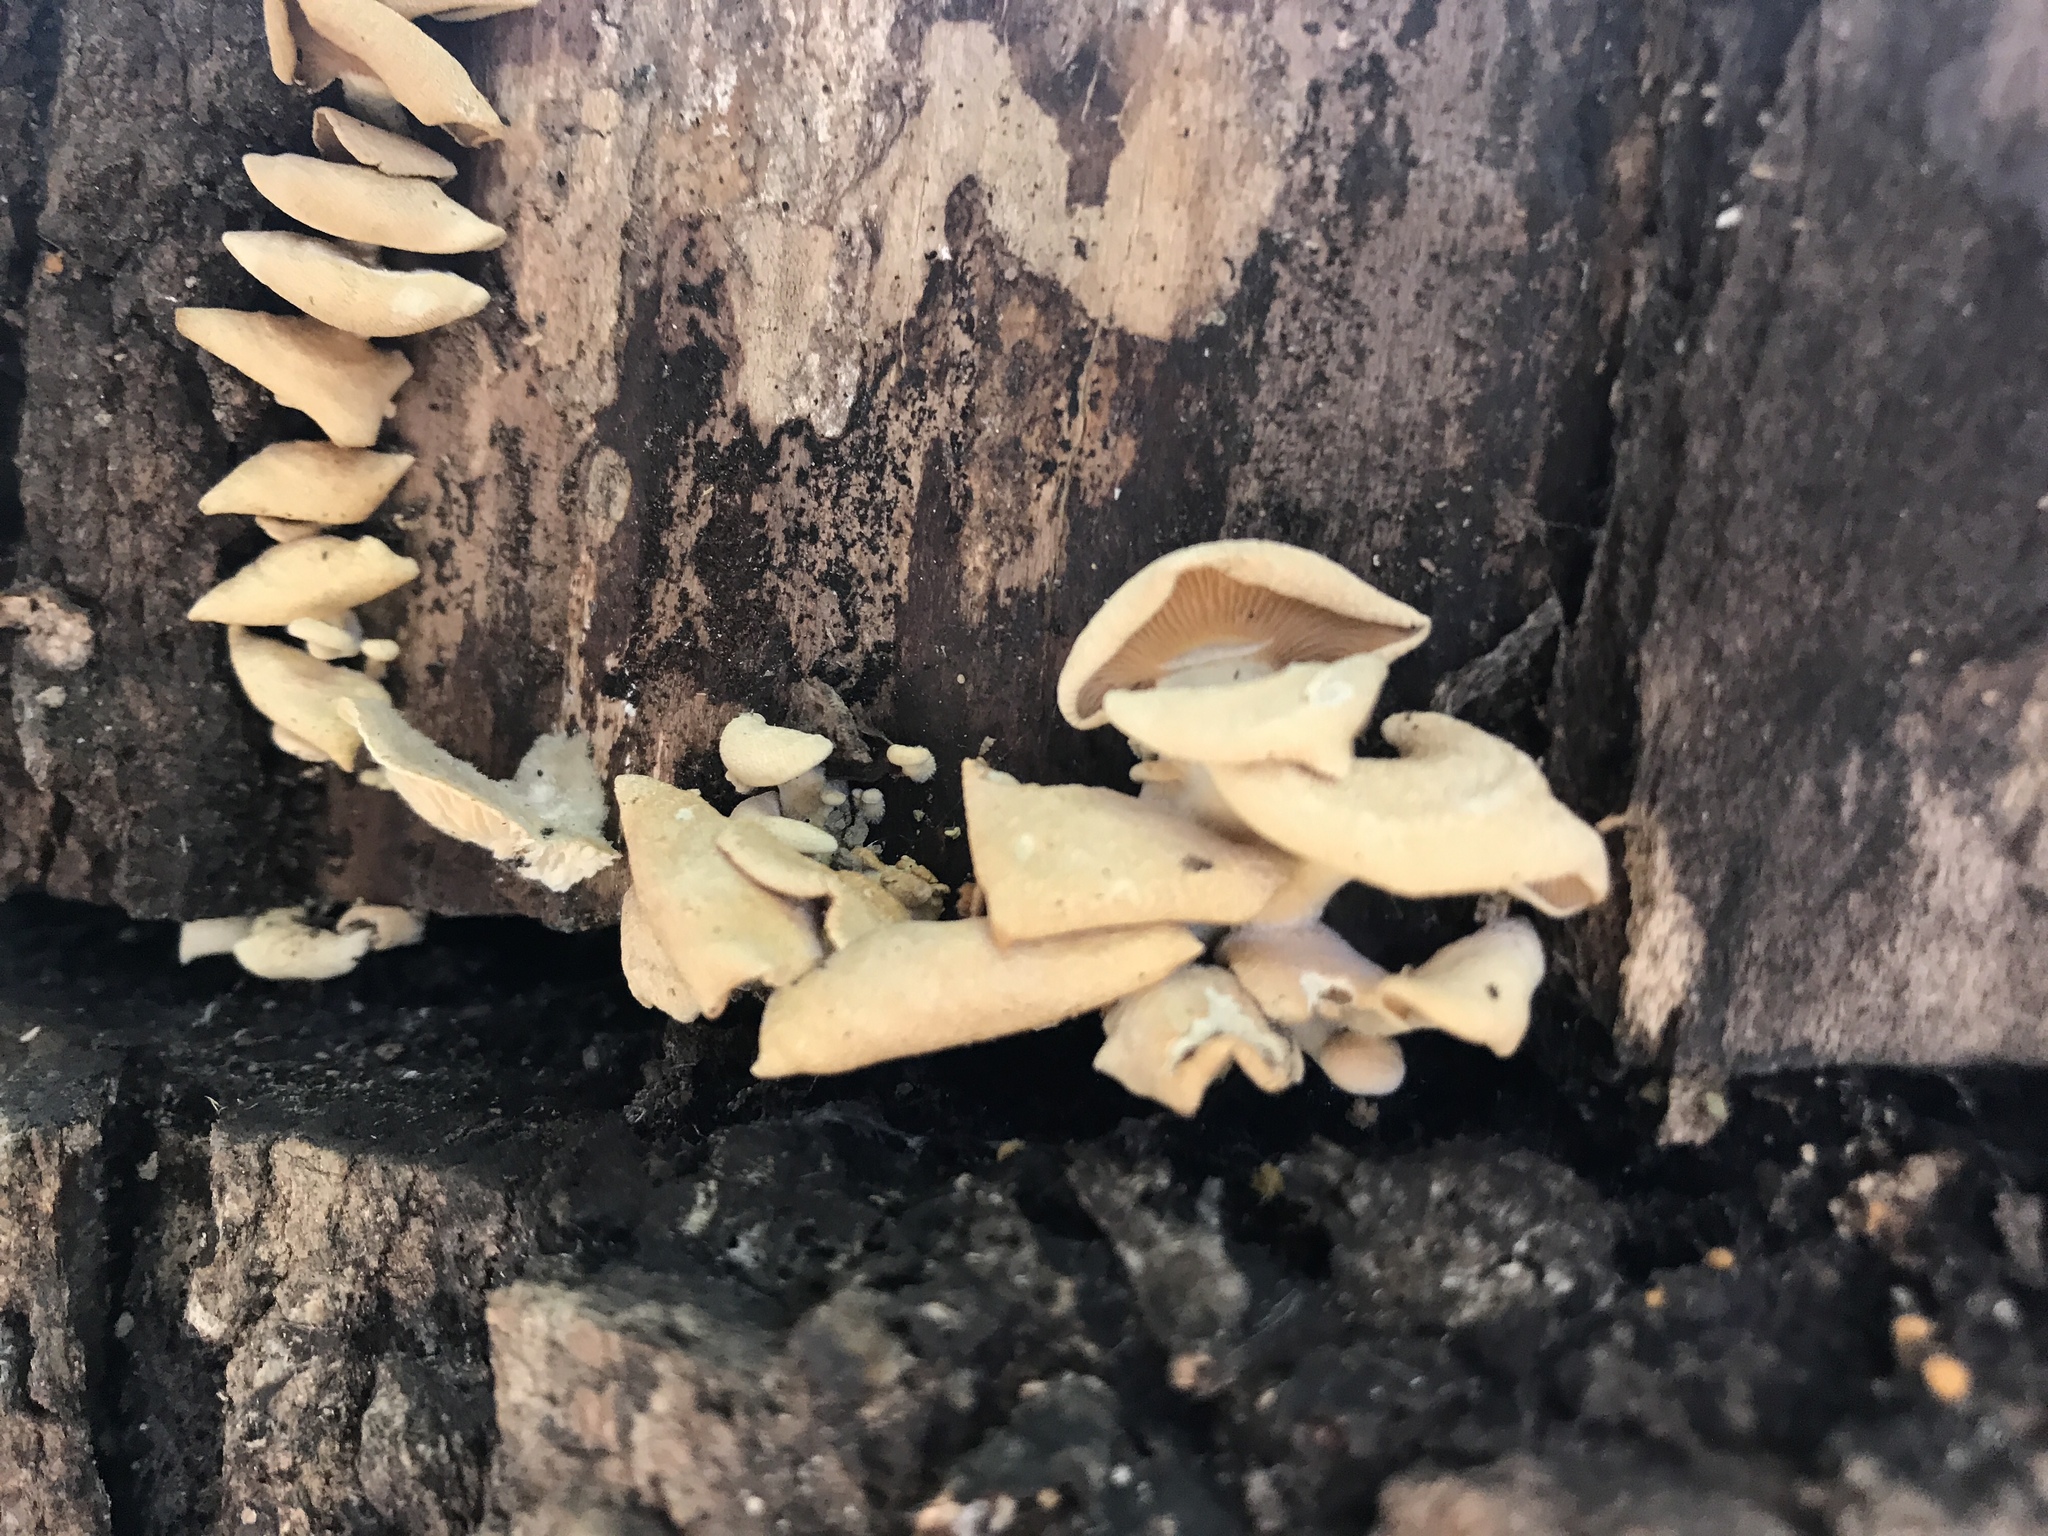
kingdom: Fungi
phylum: Basidiomycota
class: Agaricomycetes
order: Agaricales
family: Mycenaceae
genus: Panellus
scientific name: Panellus stipticus
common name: Bitter oysterling
